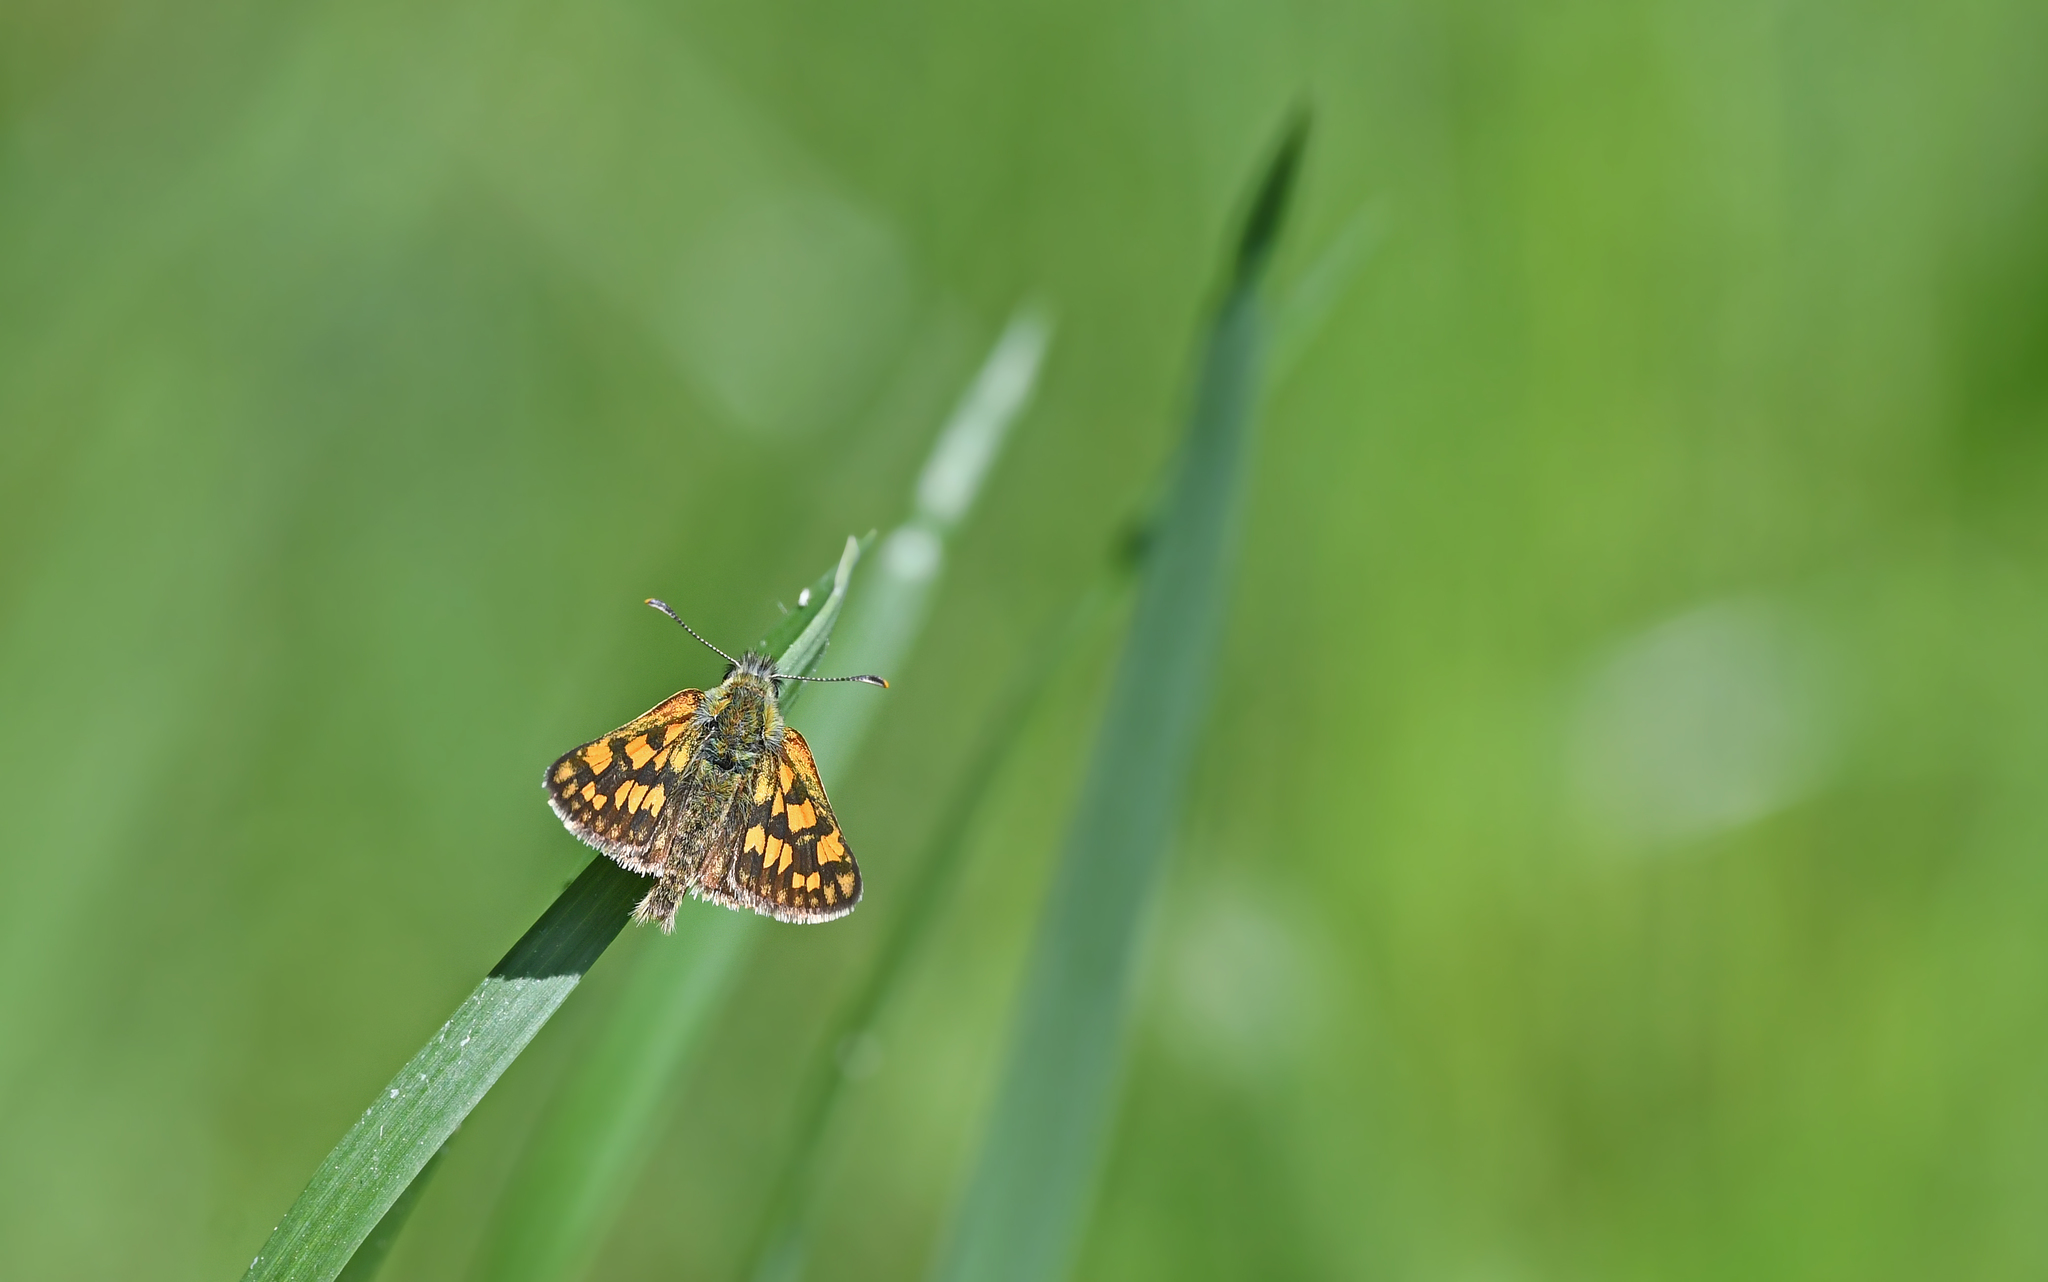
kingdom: Animalia
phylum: Arthropoda
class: Insecta
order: Lepidoptera
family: Hesperiidae
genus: Carterocephalus
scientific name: Carterocephalus palaemon
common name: Chequered skipper
